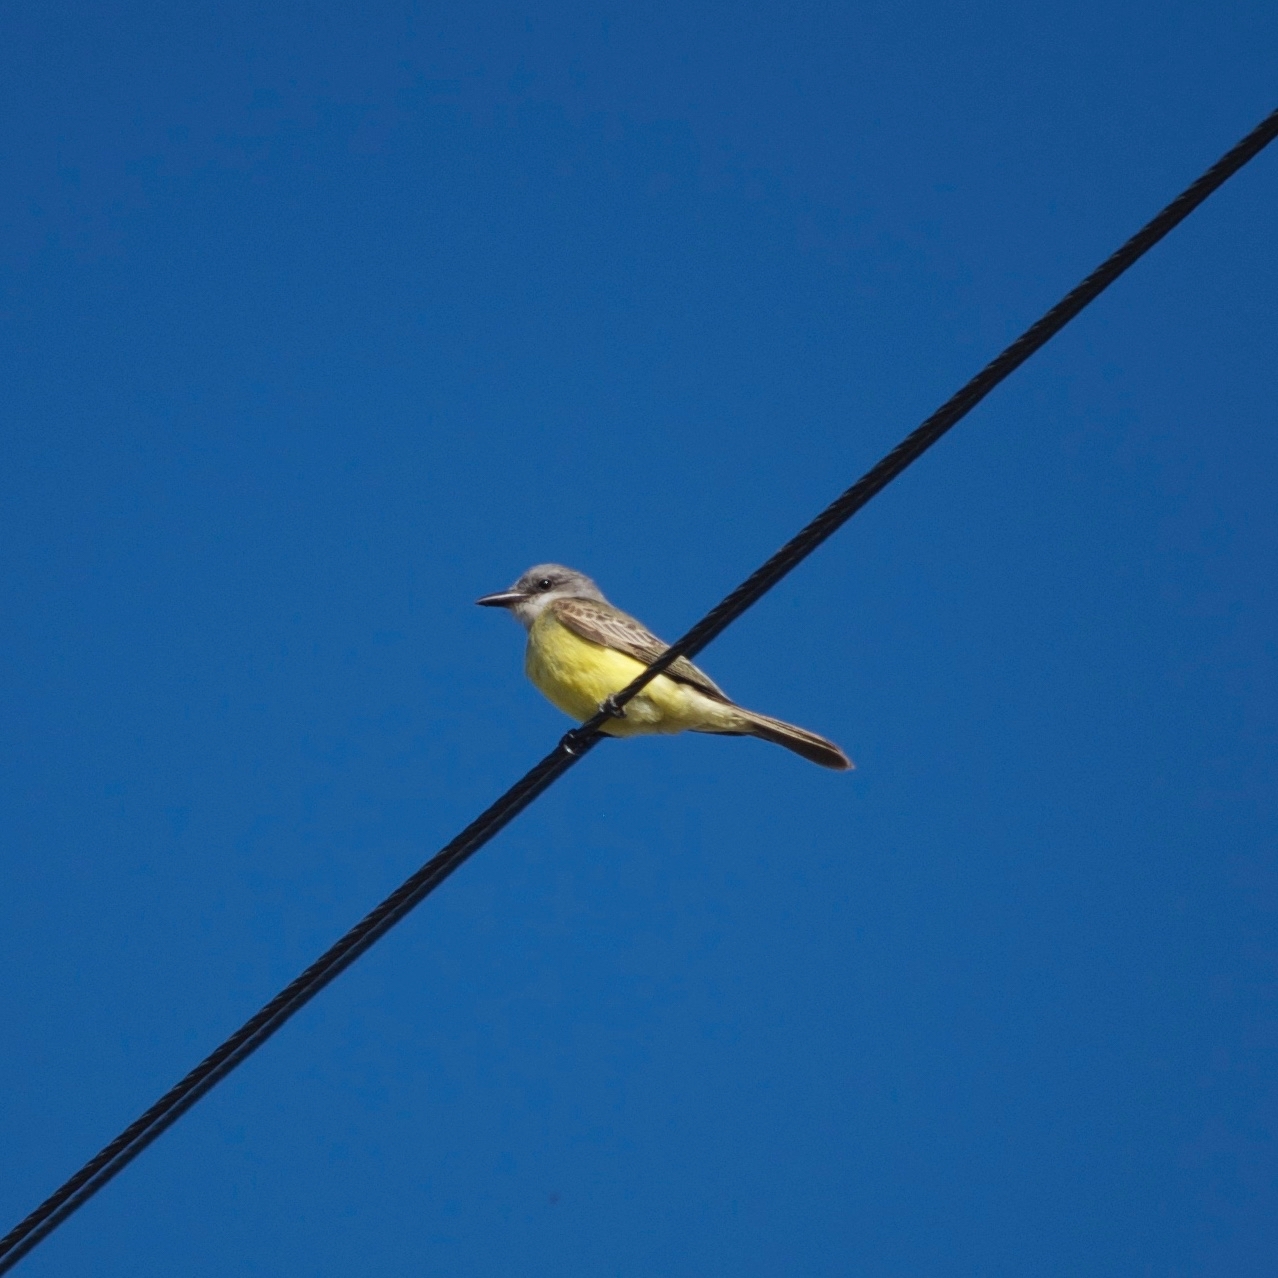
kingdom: Animalia
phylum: Chordata
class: Aves
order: Passeriformes
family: Tyrannidae
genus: Tyrannus
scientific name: Tyrannus melancholicus
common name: Tropical kingbird
